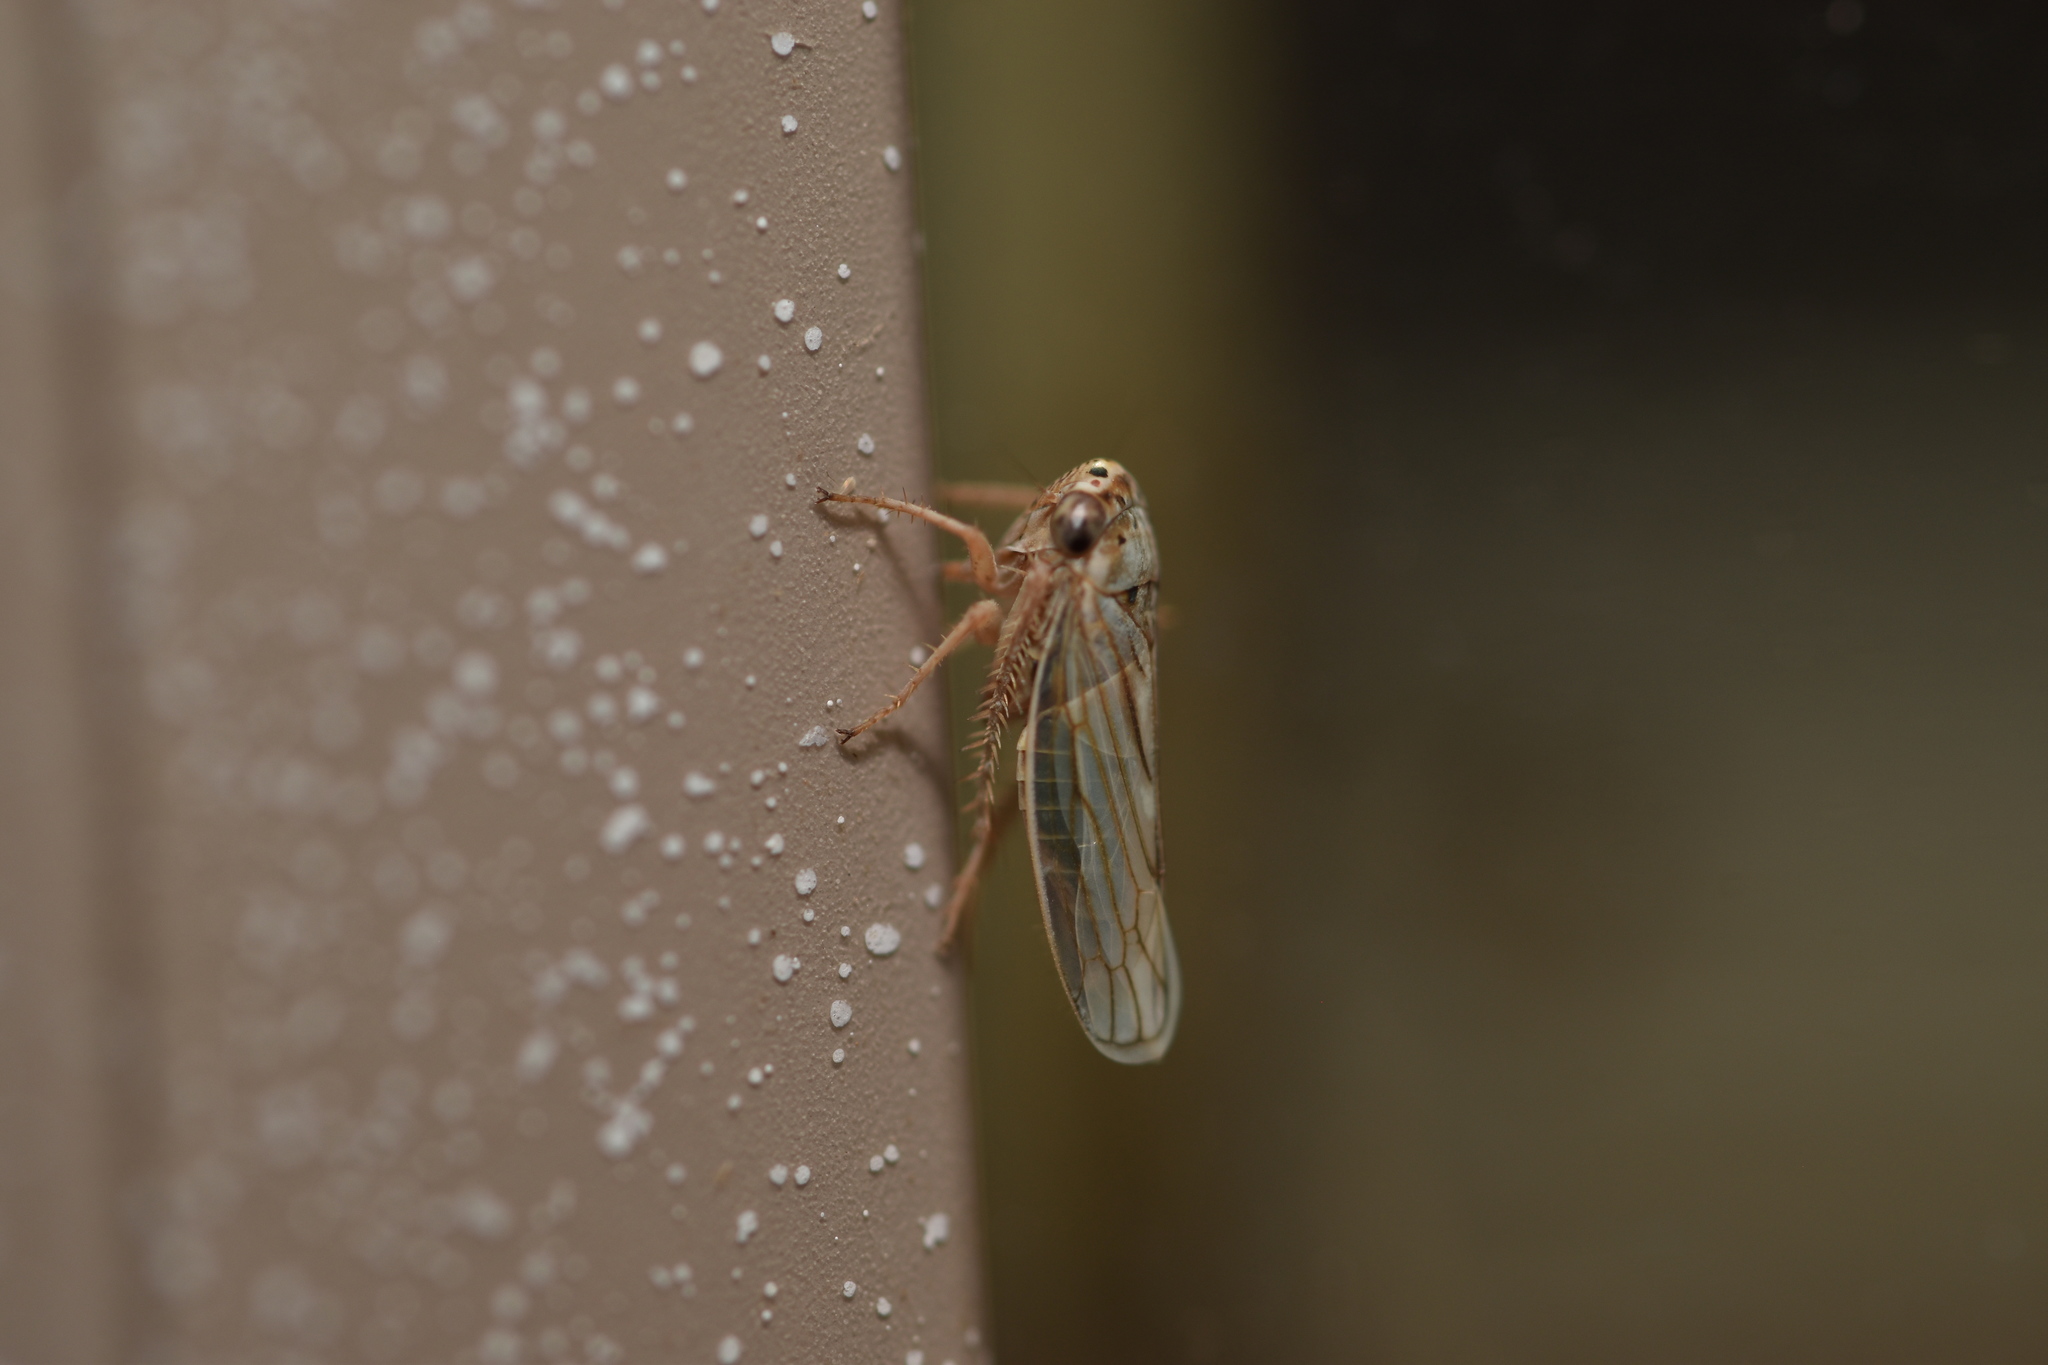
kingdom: Animalia
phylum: Arthropoda
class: Insecta
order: Hemiptera
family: Cicadellidae
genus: Exitianus
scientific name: Exitianus exitiosus
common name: Gray lawn leafhopper
